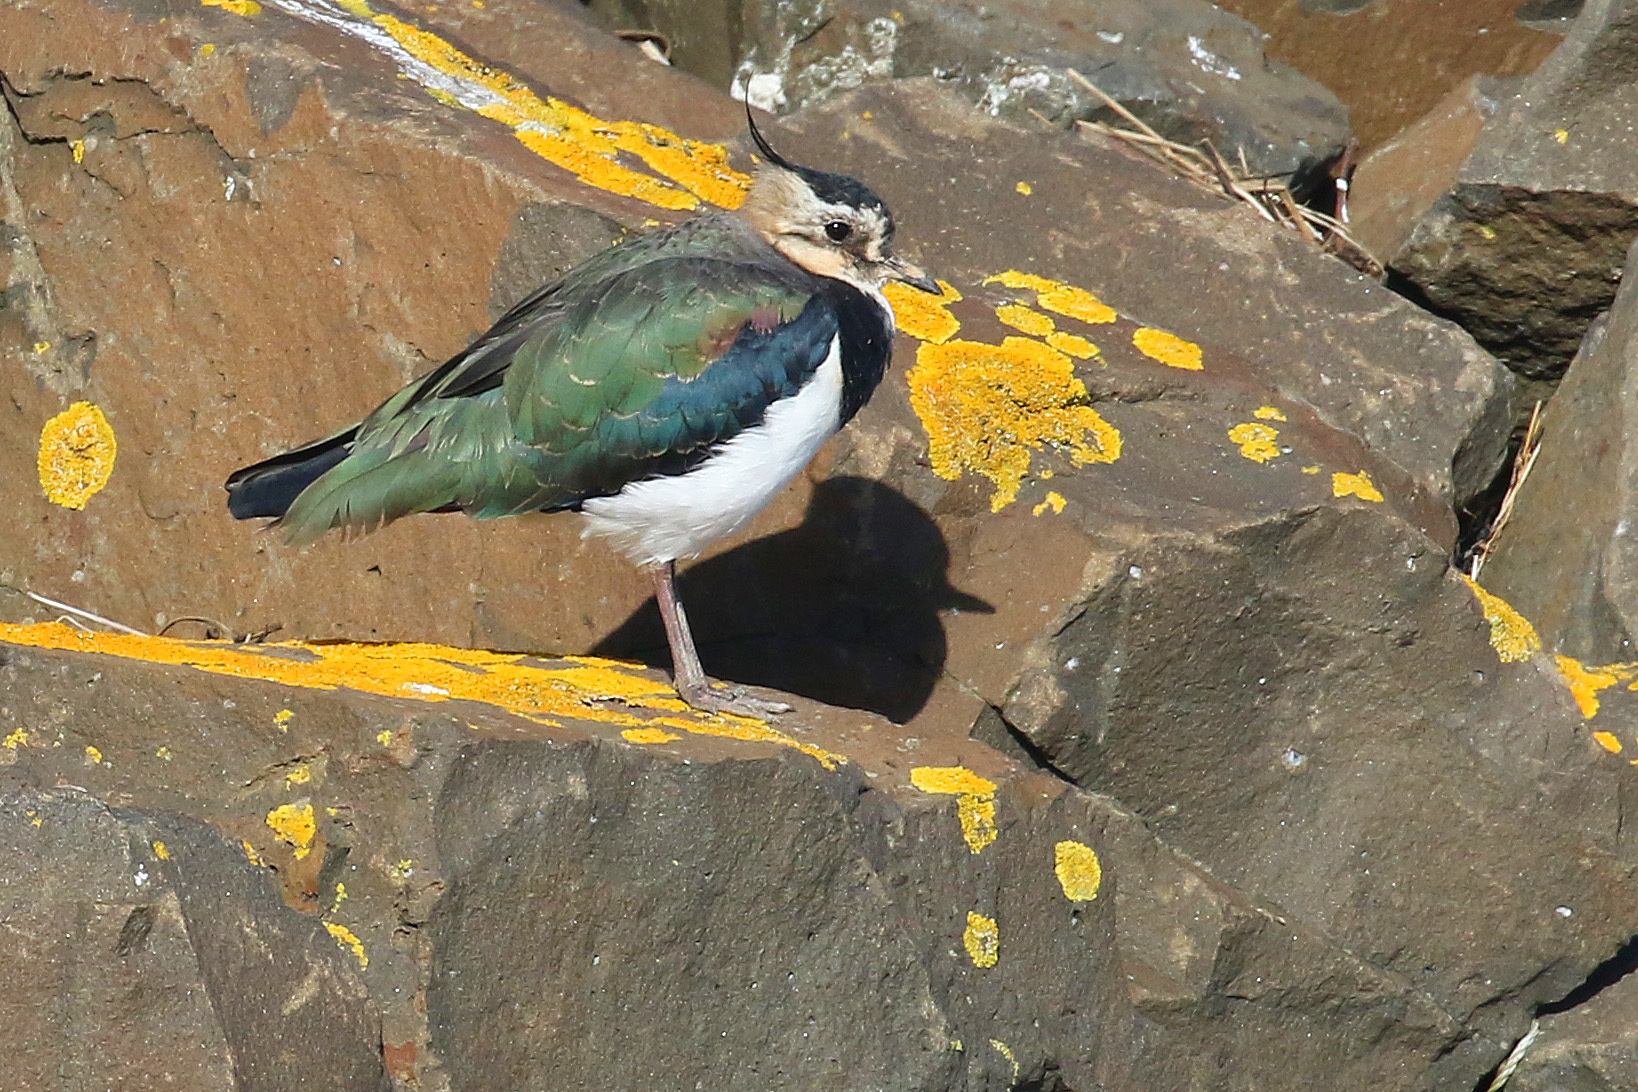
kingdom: Animalia
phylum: Chordata
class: Aves
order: Charadriiformes
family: Charadriidae
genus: Vanellus
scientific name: Vanellus vanellus
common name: Northern lapwing
